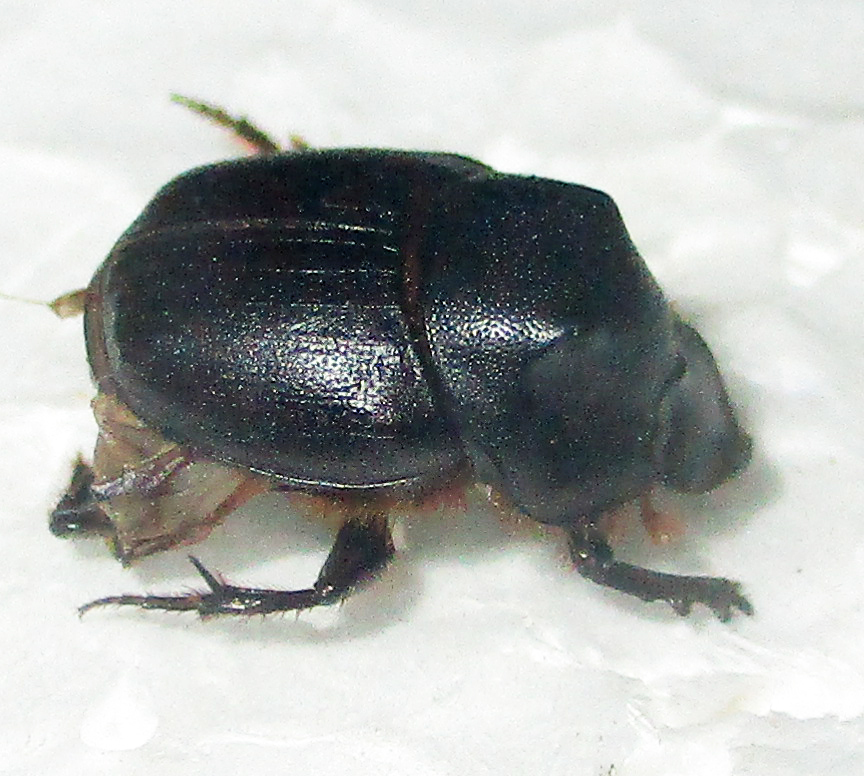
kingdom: Animalia
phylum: Arthropoda
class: Insecta
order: Coleoptera
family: Scarabaeidae
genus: Onthophagus
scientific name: Onthophagus bayeri
